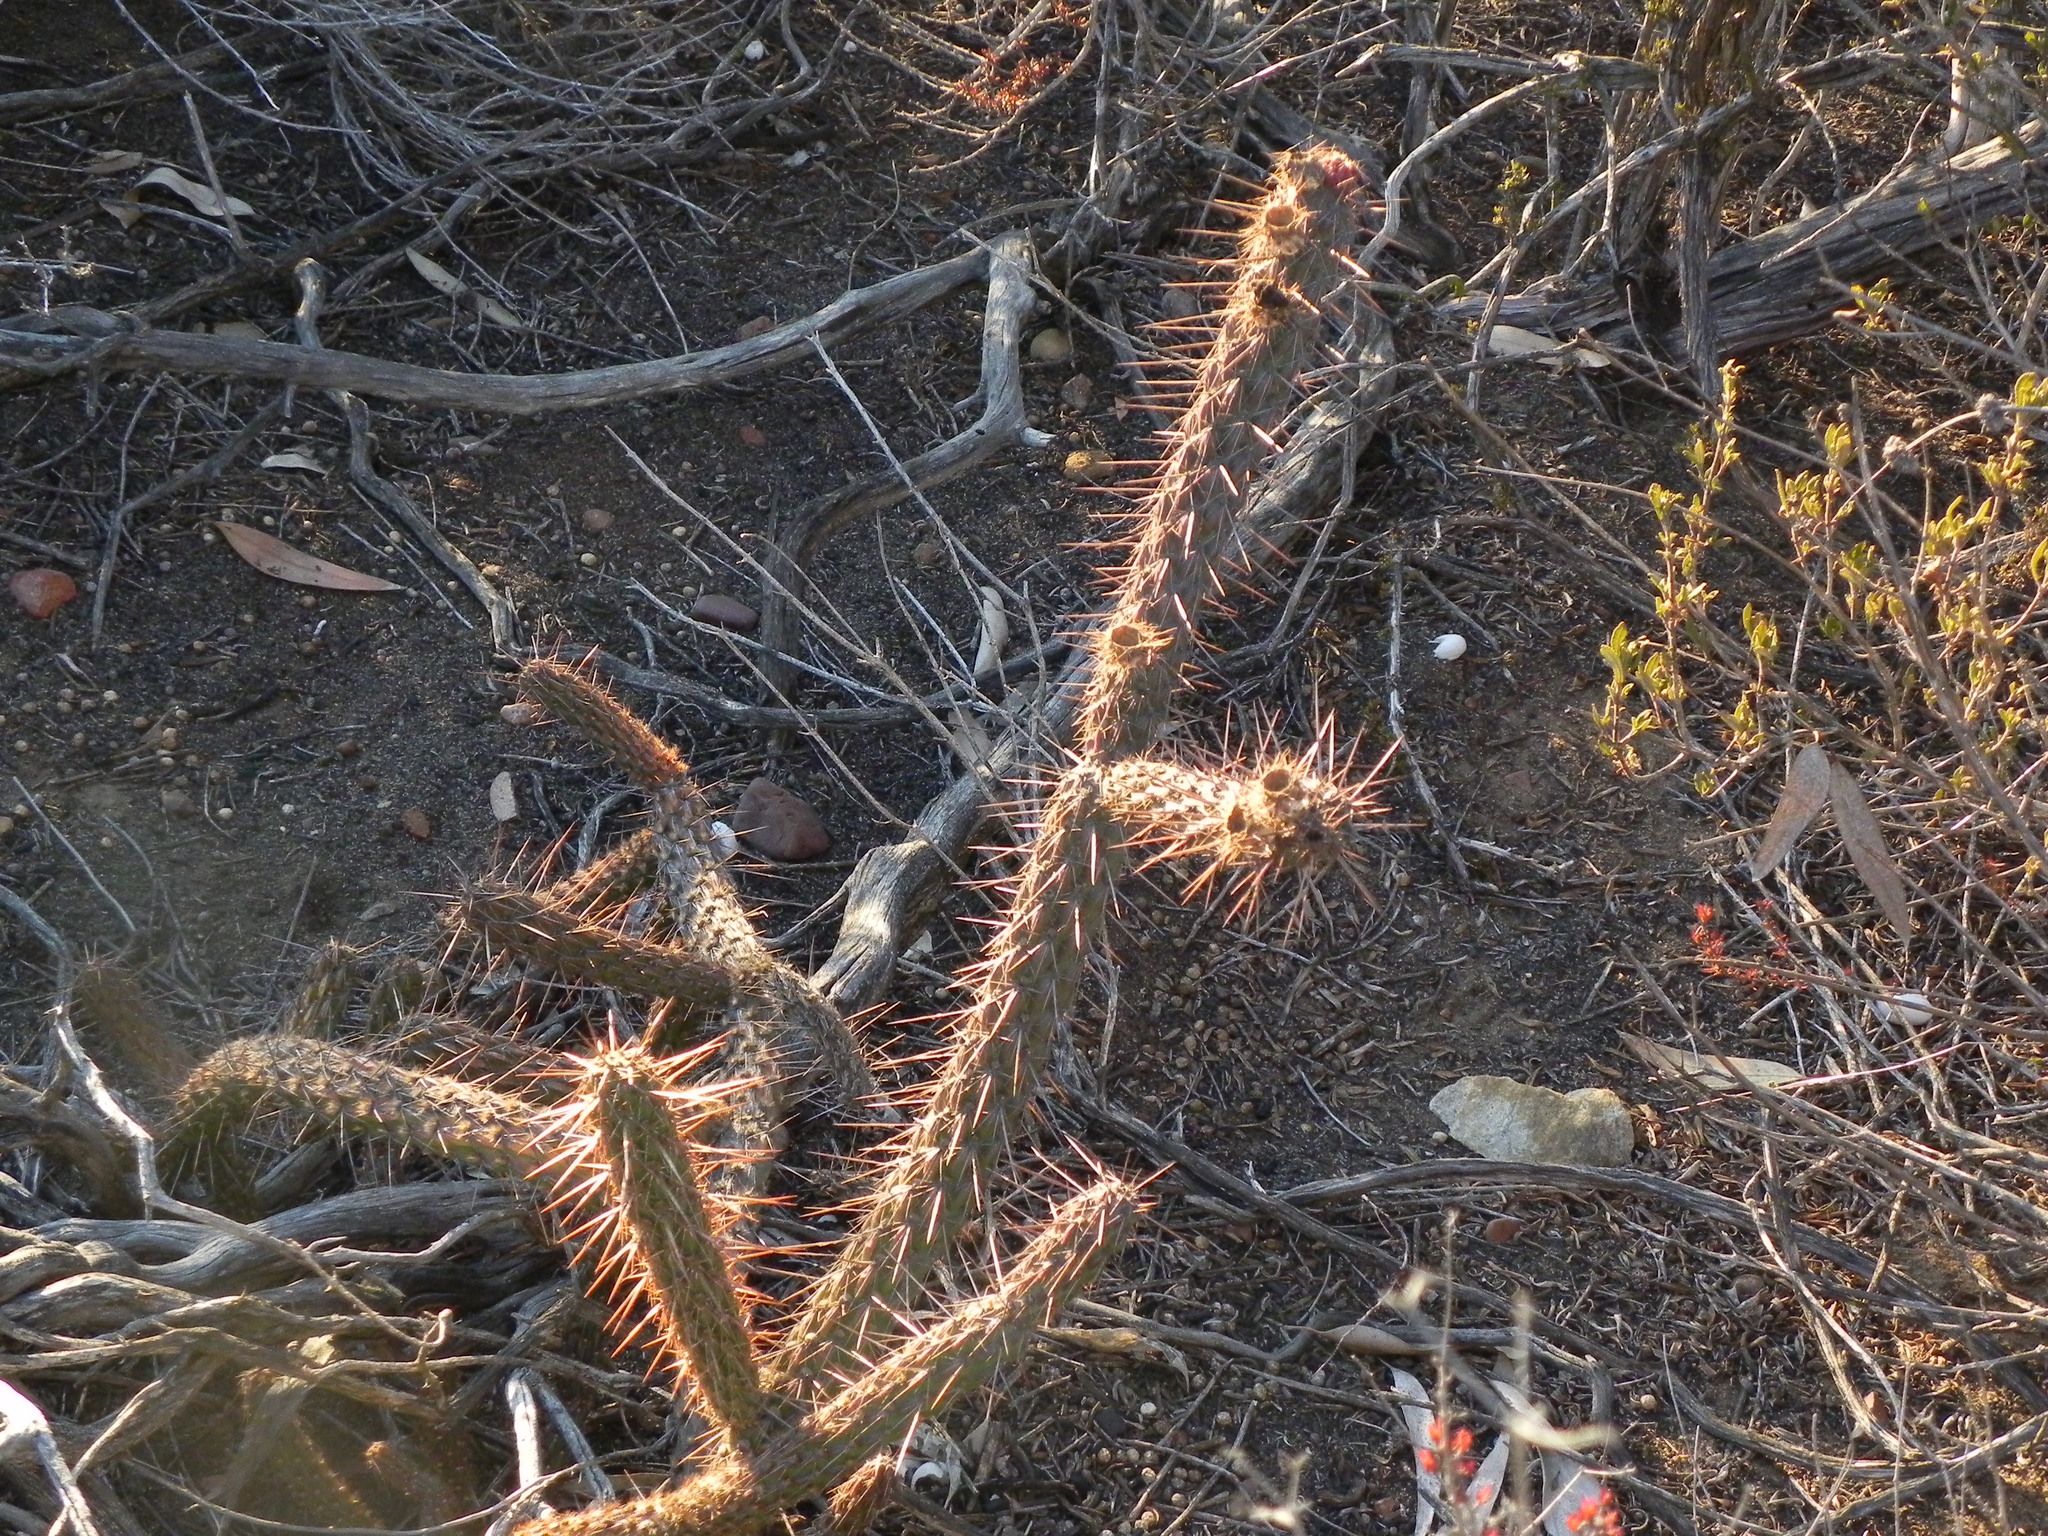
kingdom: Plantae
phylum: Tracheophyta
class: Magnoliopsida
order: Caryophyllales
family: Cactaceae
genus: Cylindropuntia
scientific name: Cylindropuntia californica
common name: Snake cholla
